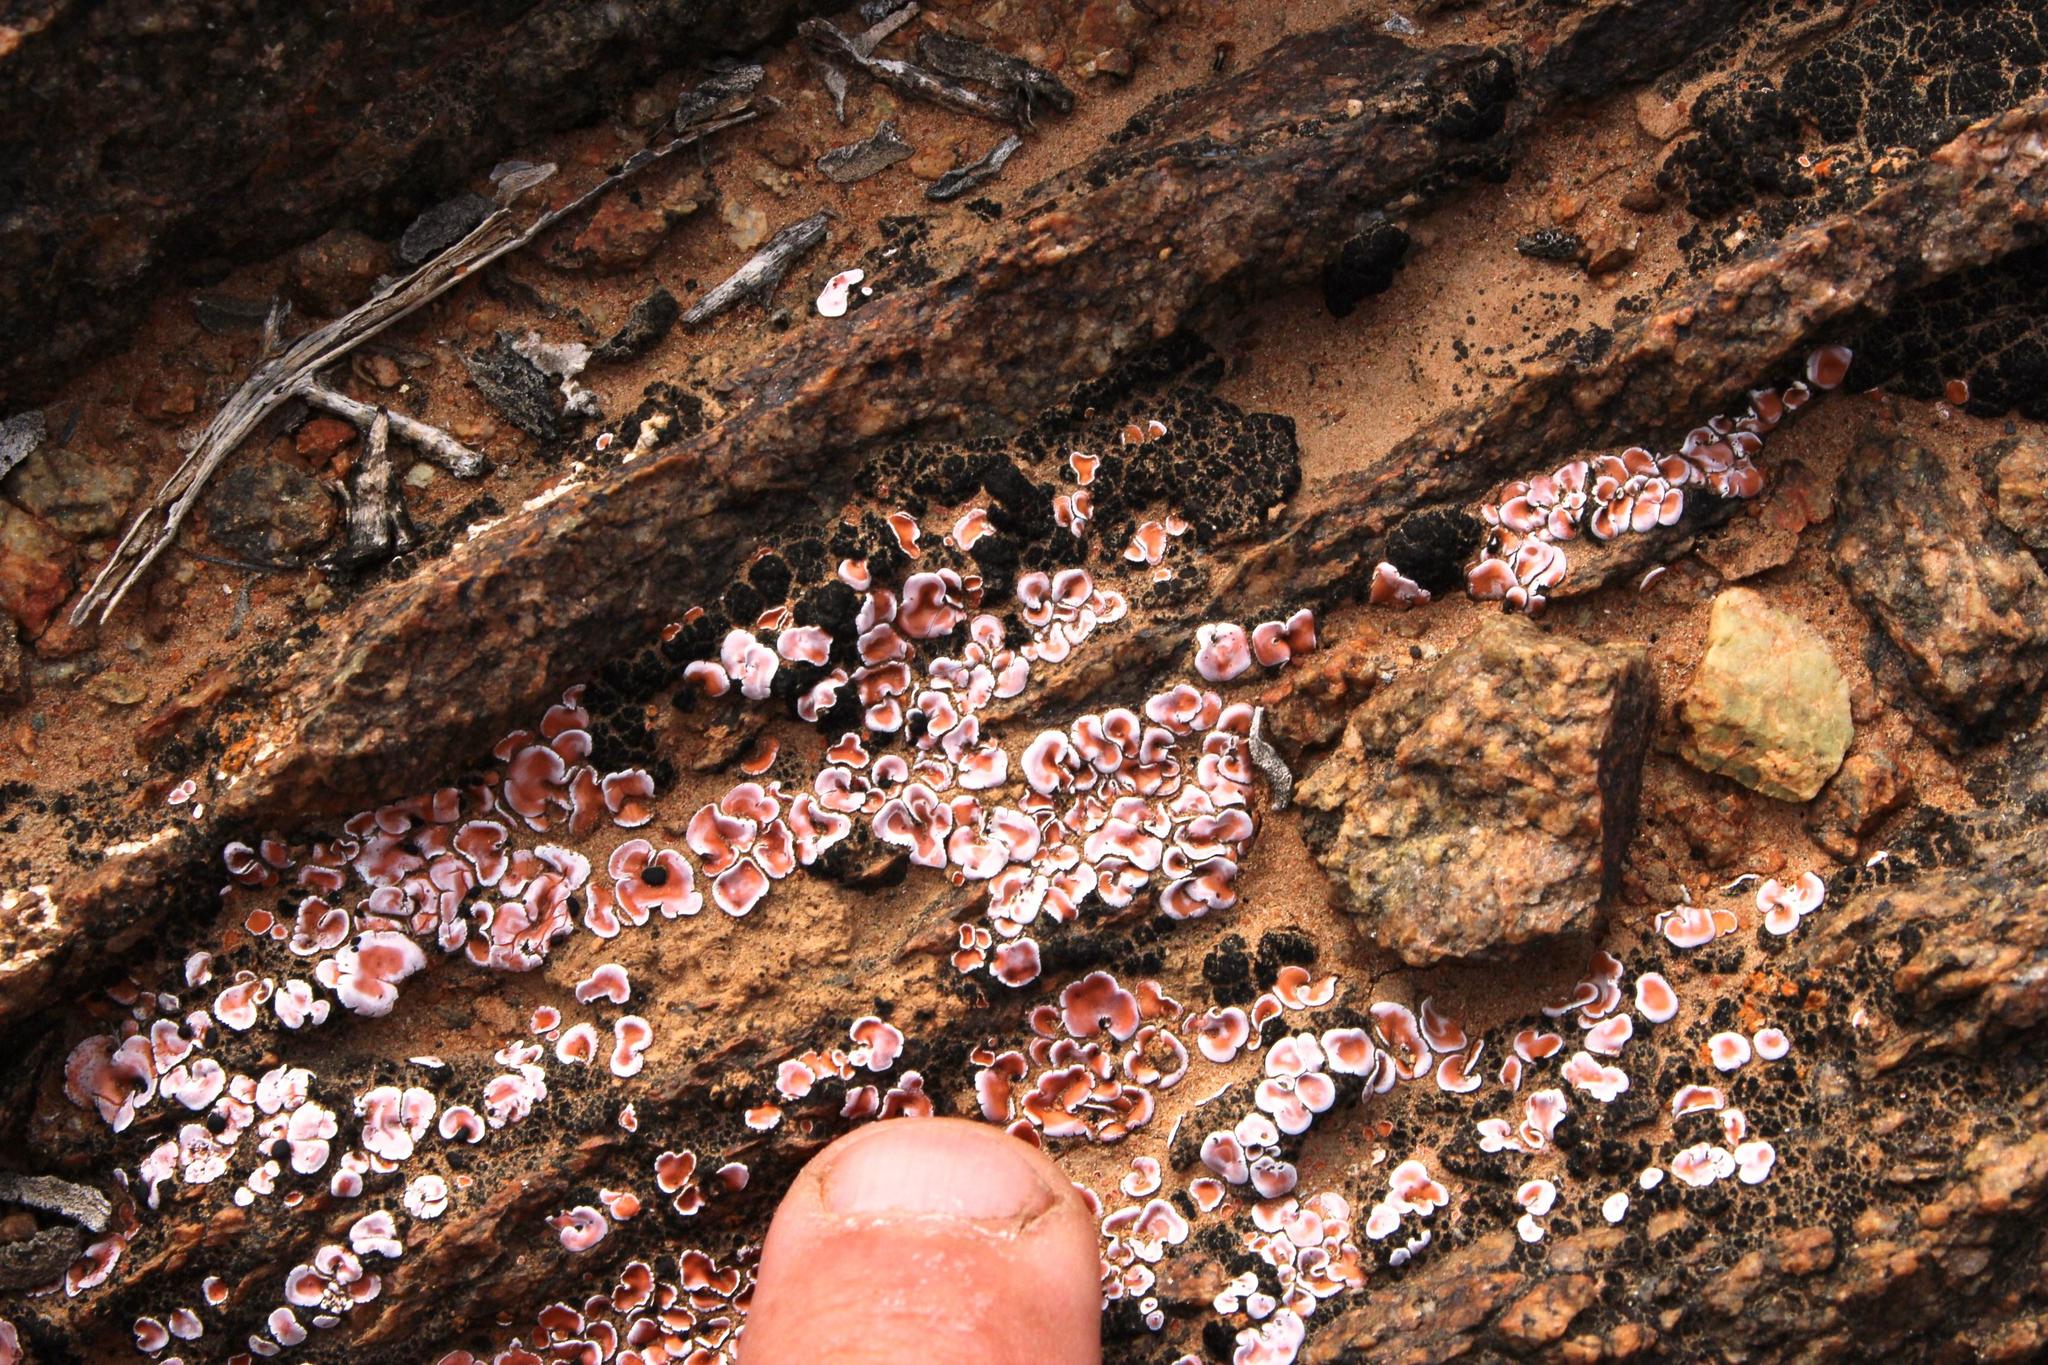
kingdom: Fungi
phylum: Ascomycota
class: Lecanoromycetes
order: Lecanorales
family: Psoraceae
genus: Psora
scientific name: Psora crenata
